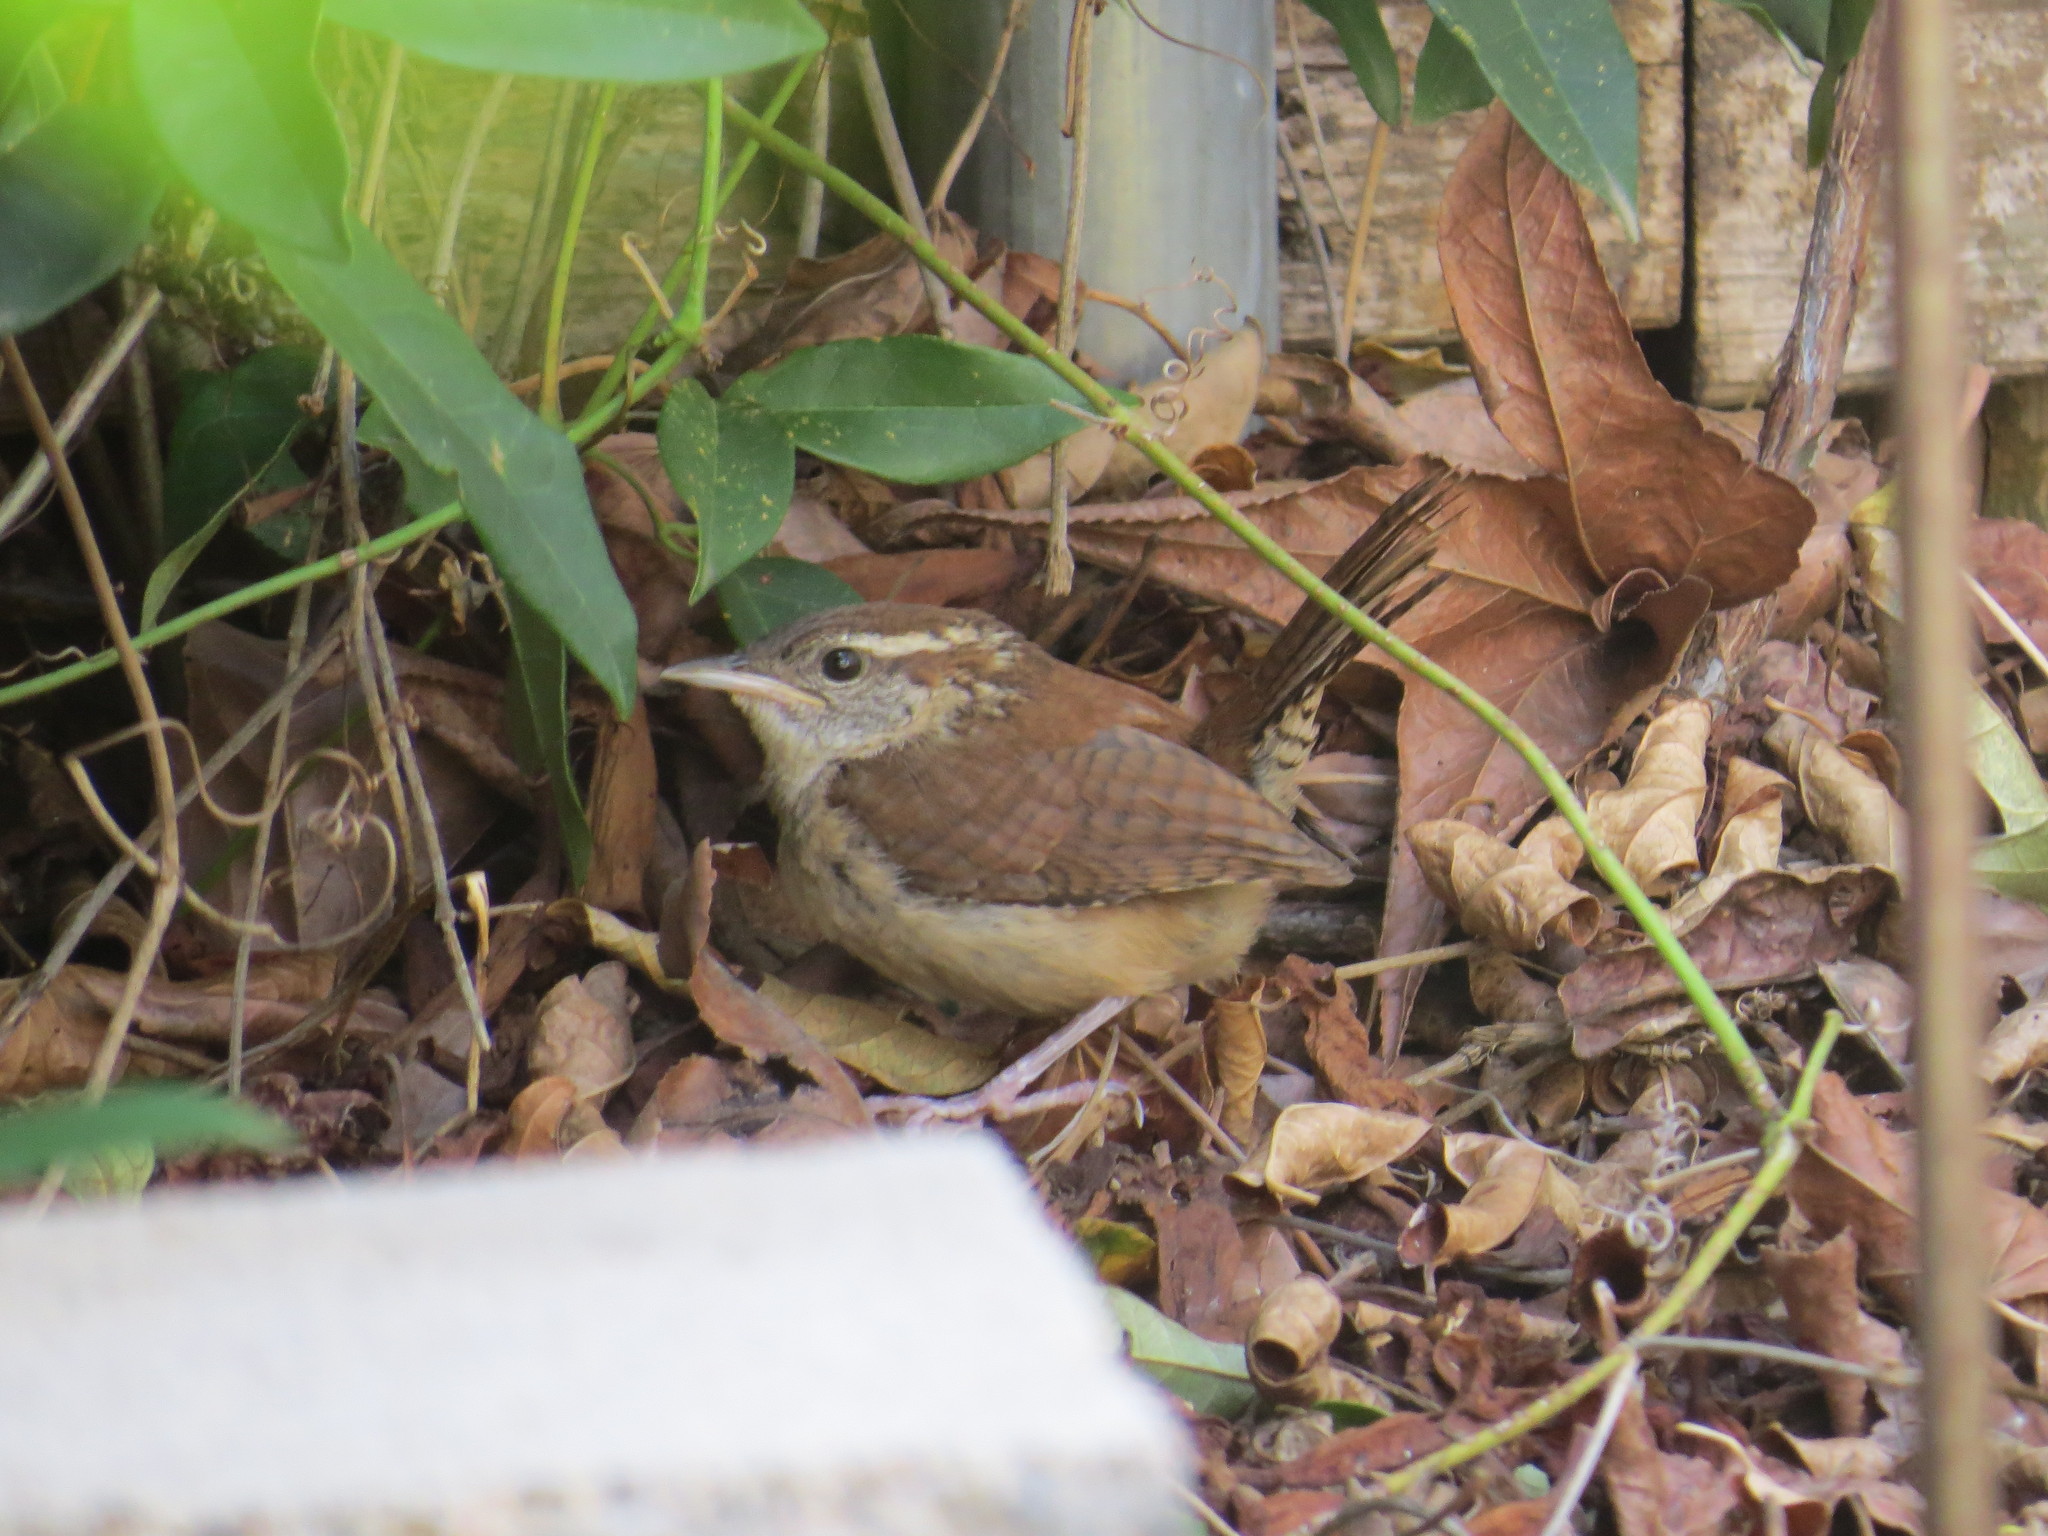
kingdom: Animalia
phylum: Chordata
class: Aves
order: Passeriformes
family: Troglodytidae
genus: Thryothorus
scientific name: Thryothorus ludovicianus
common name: Carolina wren
